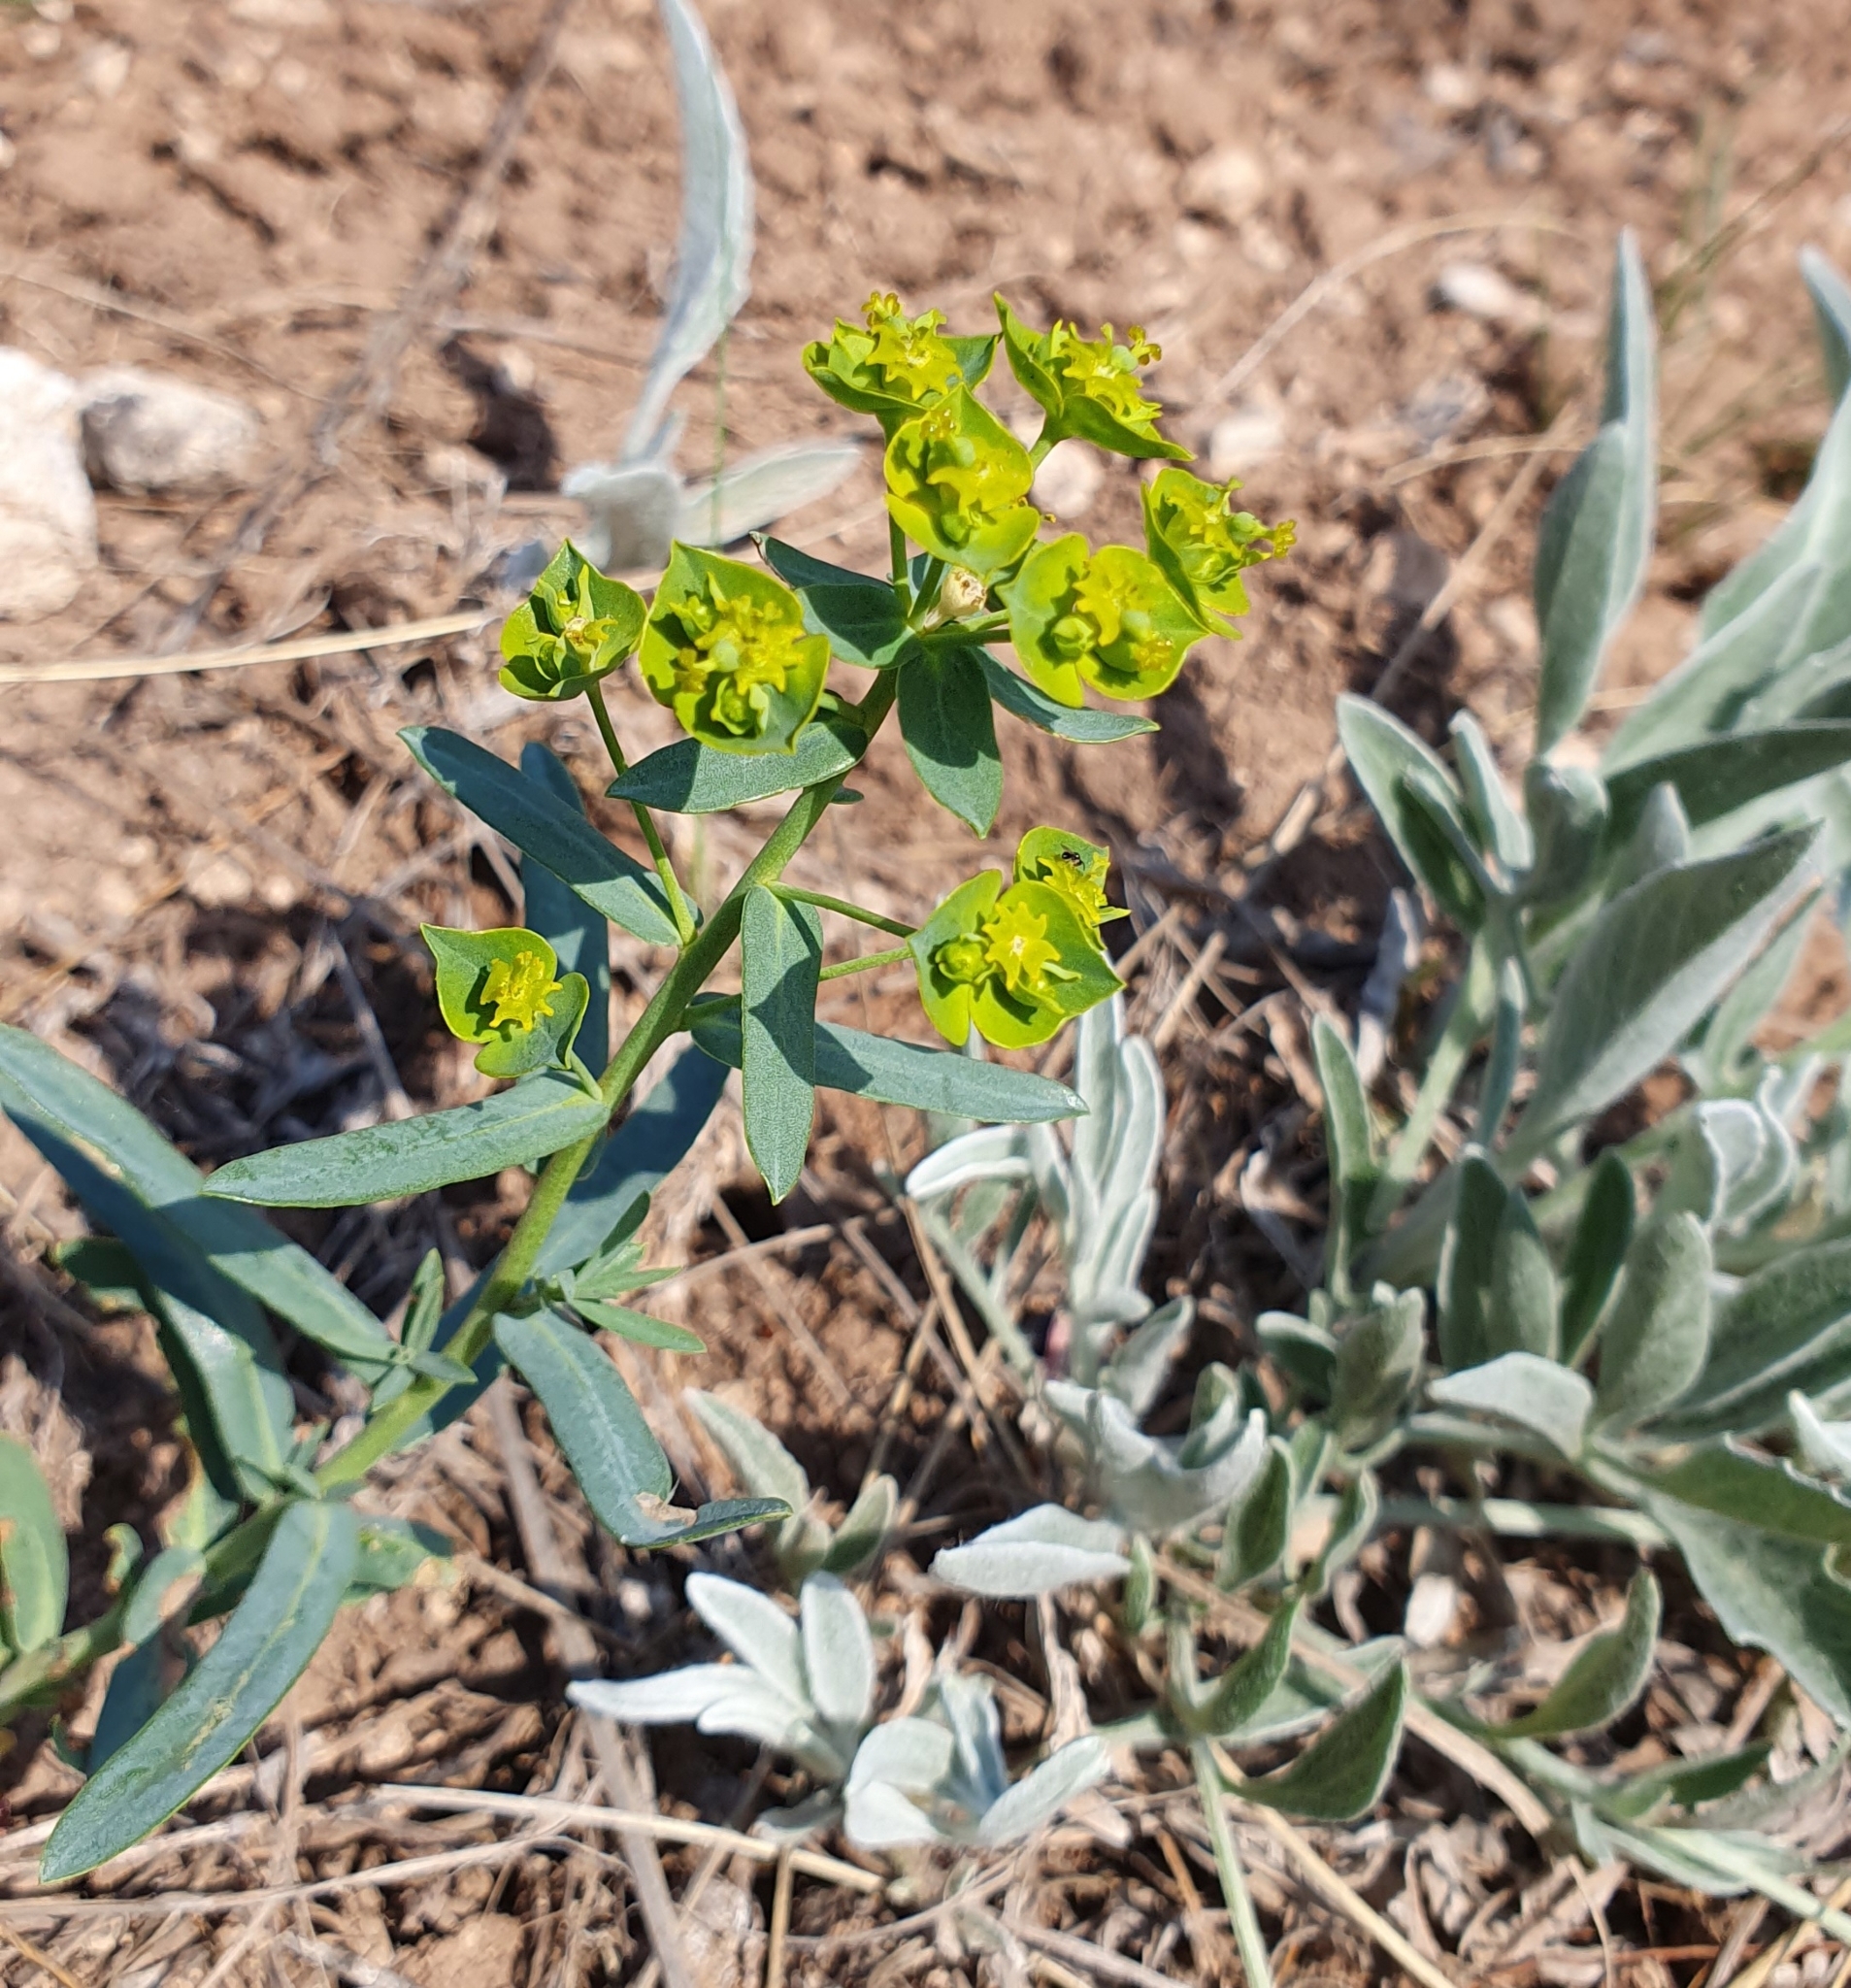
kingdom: Plantae
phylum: Tracheophyta
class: Magnoliopsida
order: Malpighiales
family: Euphorbiaceae
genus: Euphorbia
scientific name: Euphorbia esula
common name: Leafy spurge
